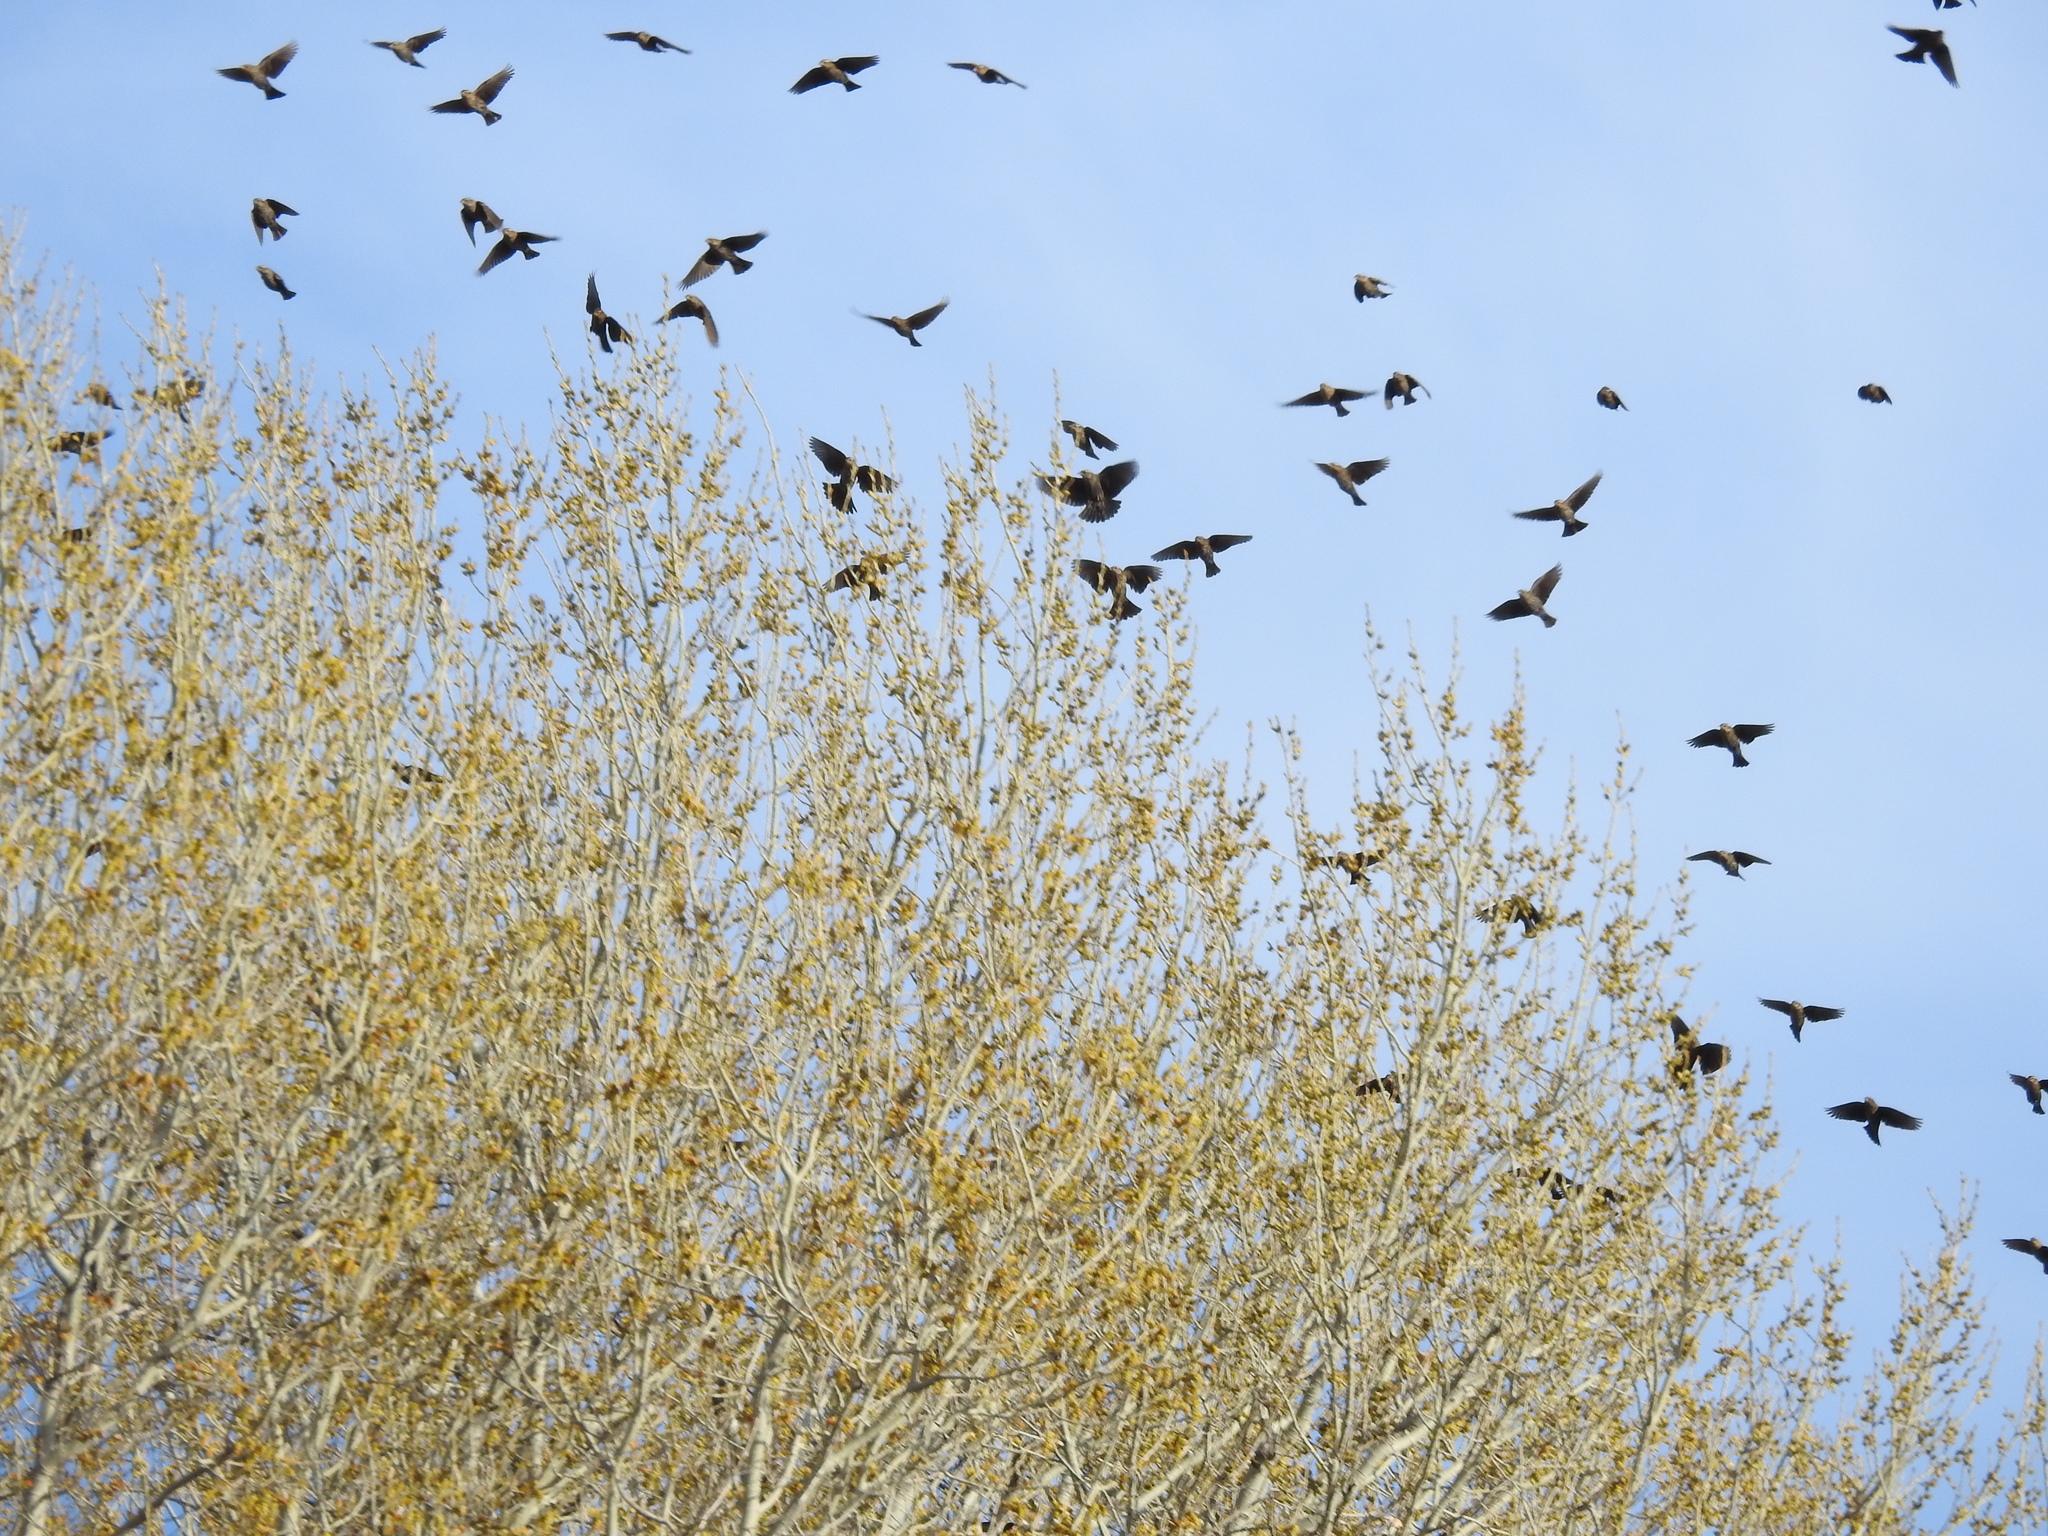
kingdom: Animalia
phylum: Chordata
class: Aves
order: Passeriformes
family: Icteridae
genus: Agelaius
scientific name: Agelaius phoeniceus
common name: Red-winged blackbird
